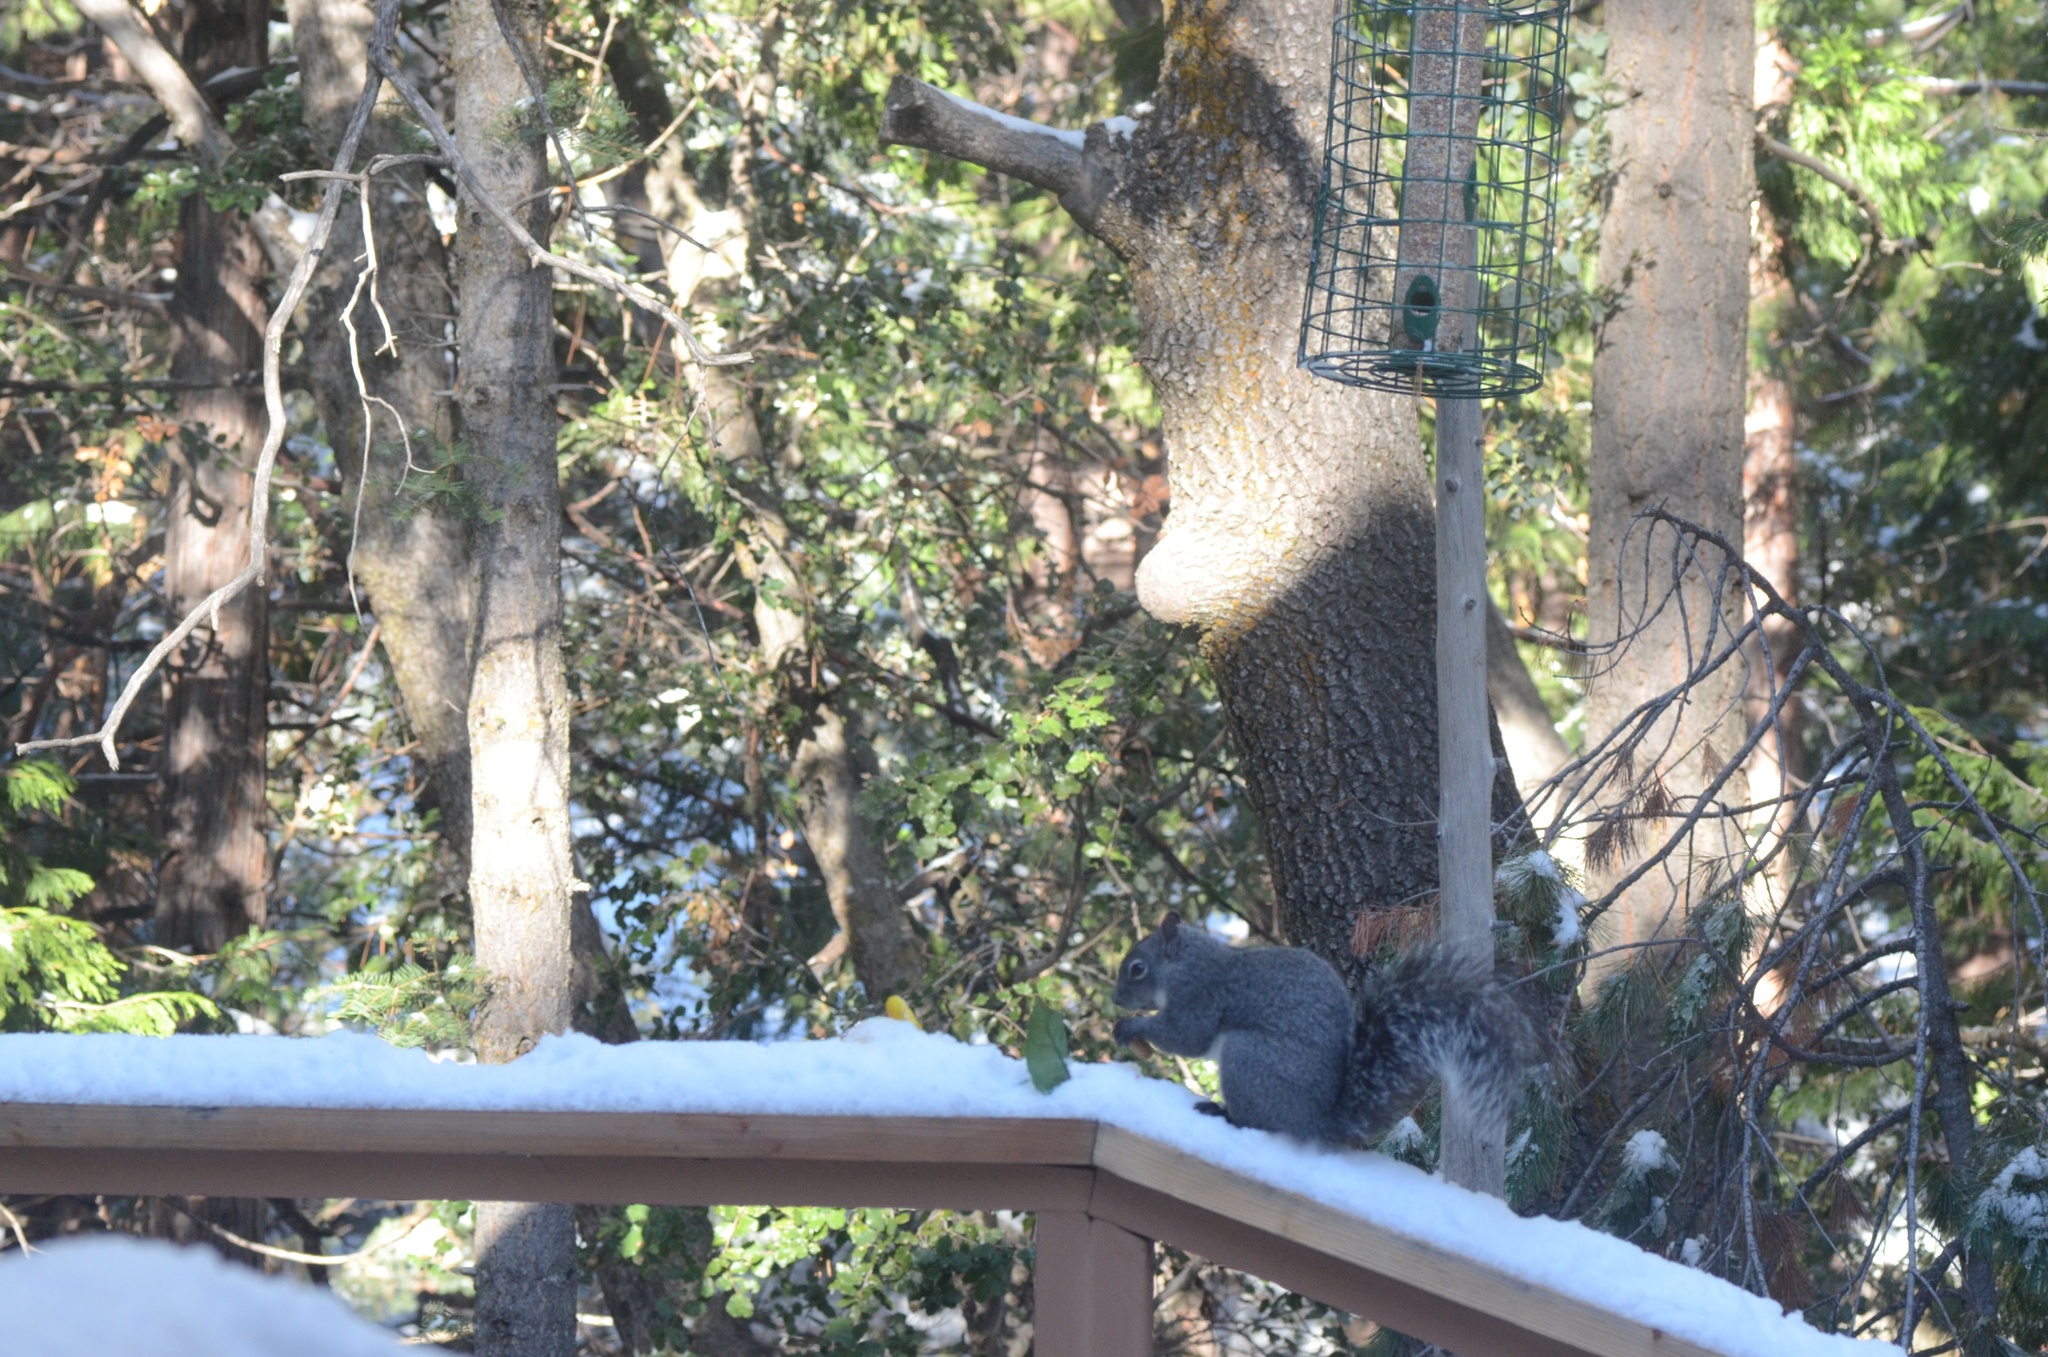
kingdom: Animalia
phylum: Chordata
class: Mammalia
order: Rodentia
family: Sciuridae
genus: Sciurus
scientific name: Sciurus griseus
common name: Western gray squirrel
